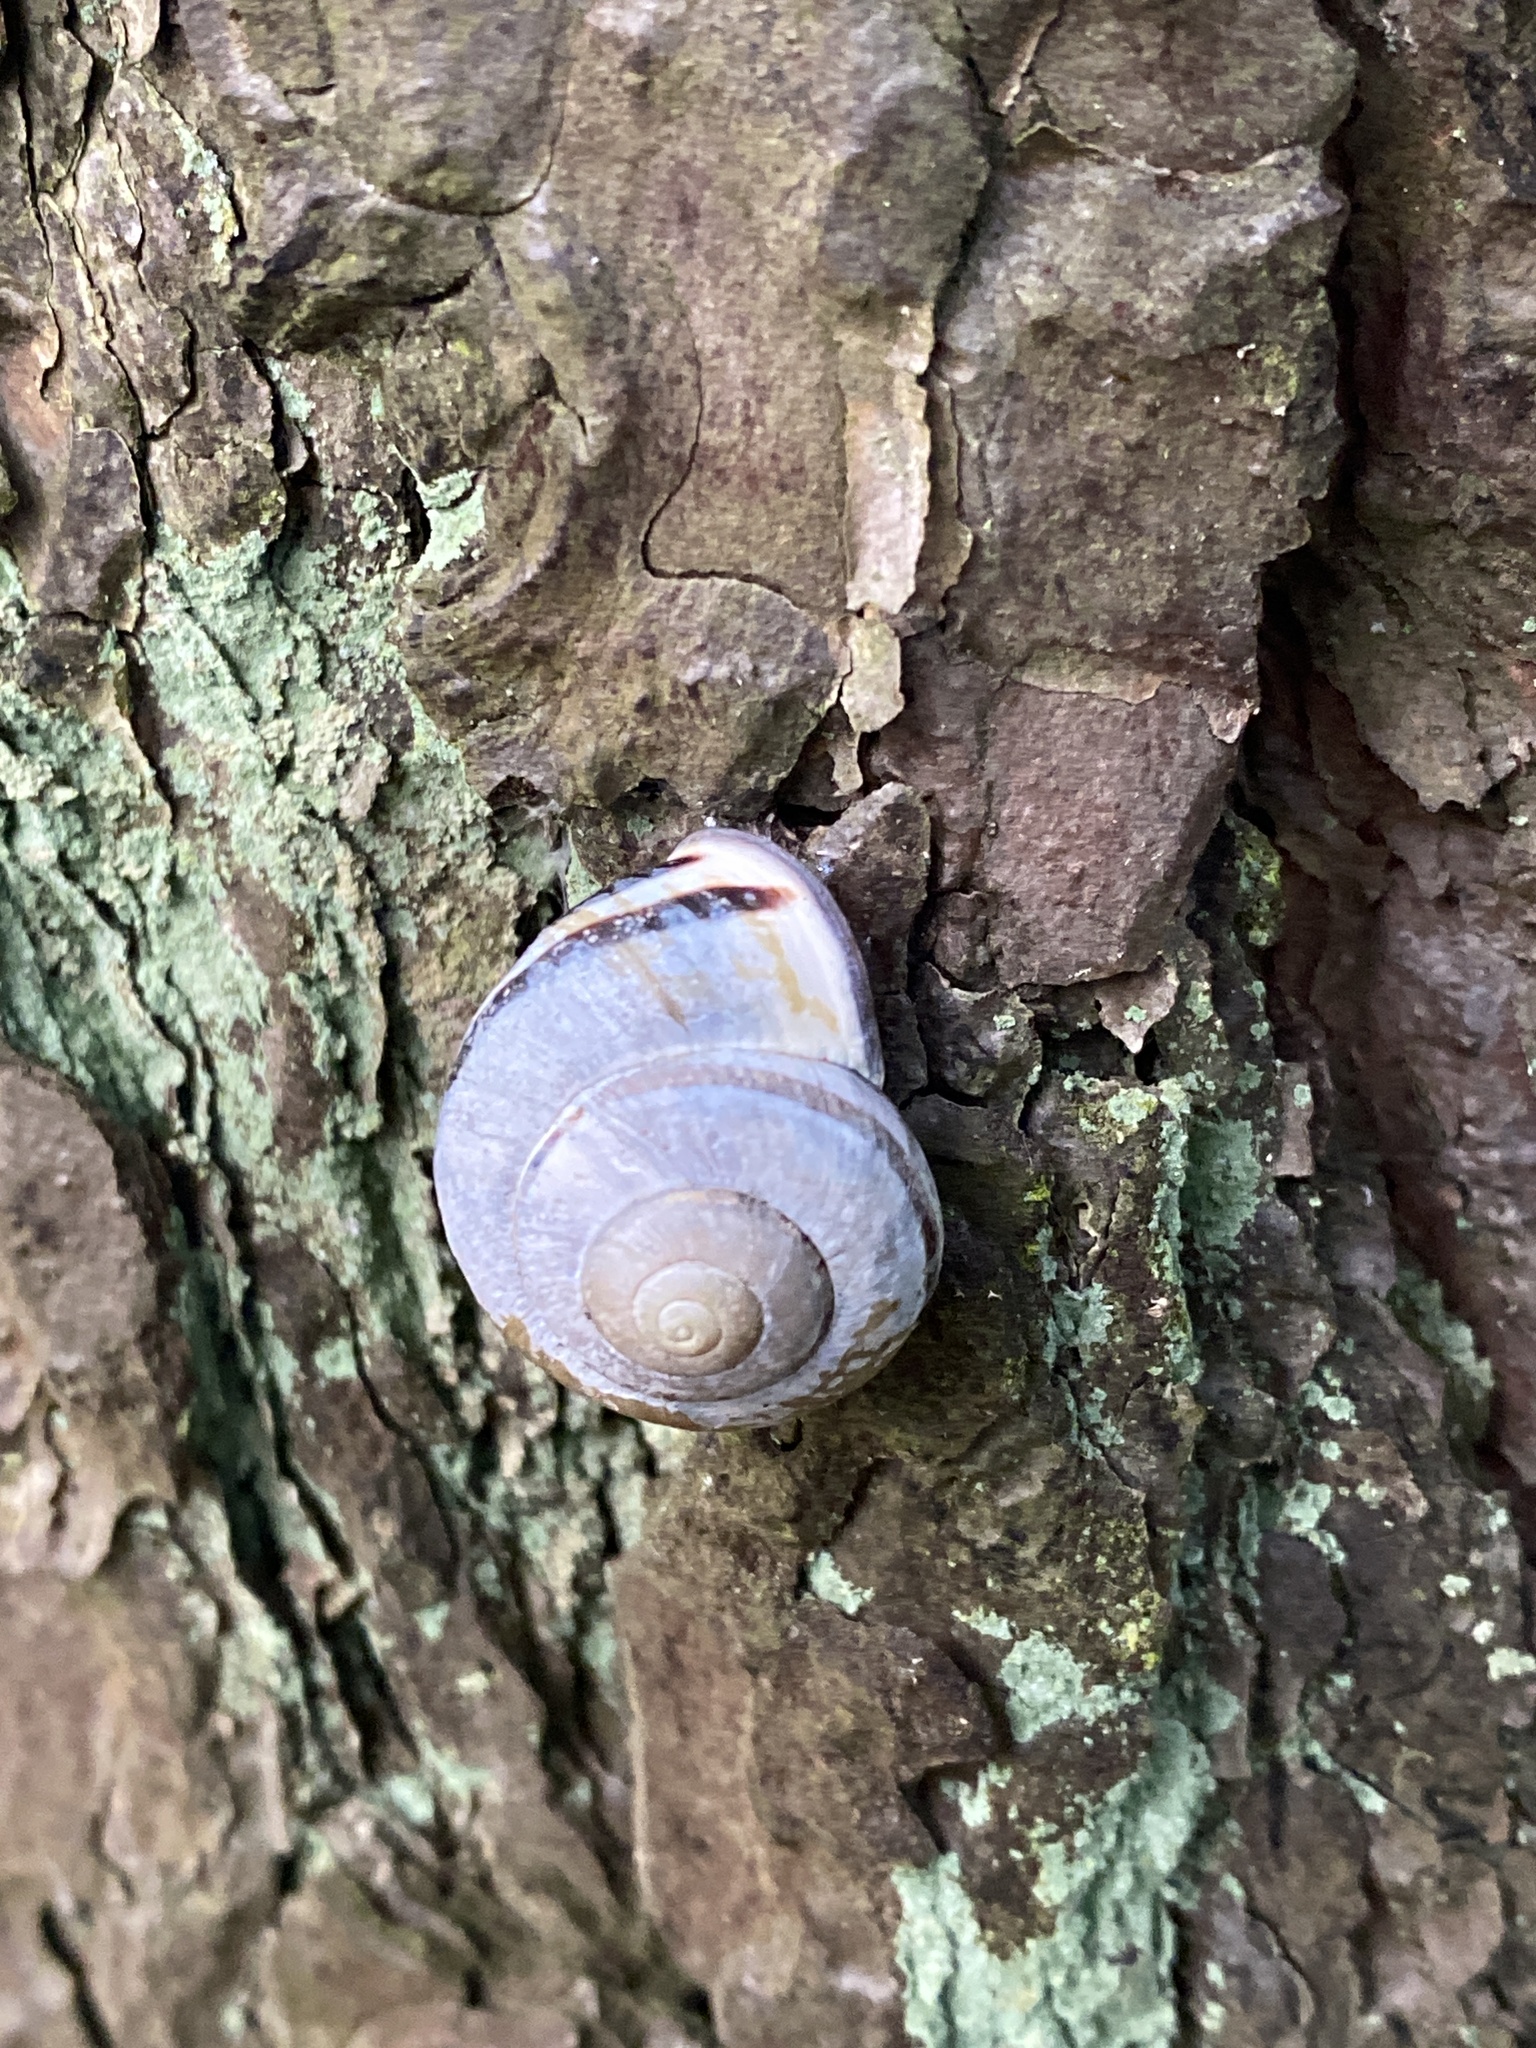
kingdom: Animalia
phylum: Mollusca
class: Gastropoda
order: Stylommatophora
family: Helicidae
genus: Cepaea
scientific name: Cepaea nemoralis
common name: Grovesnail
